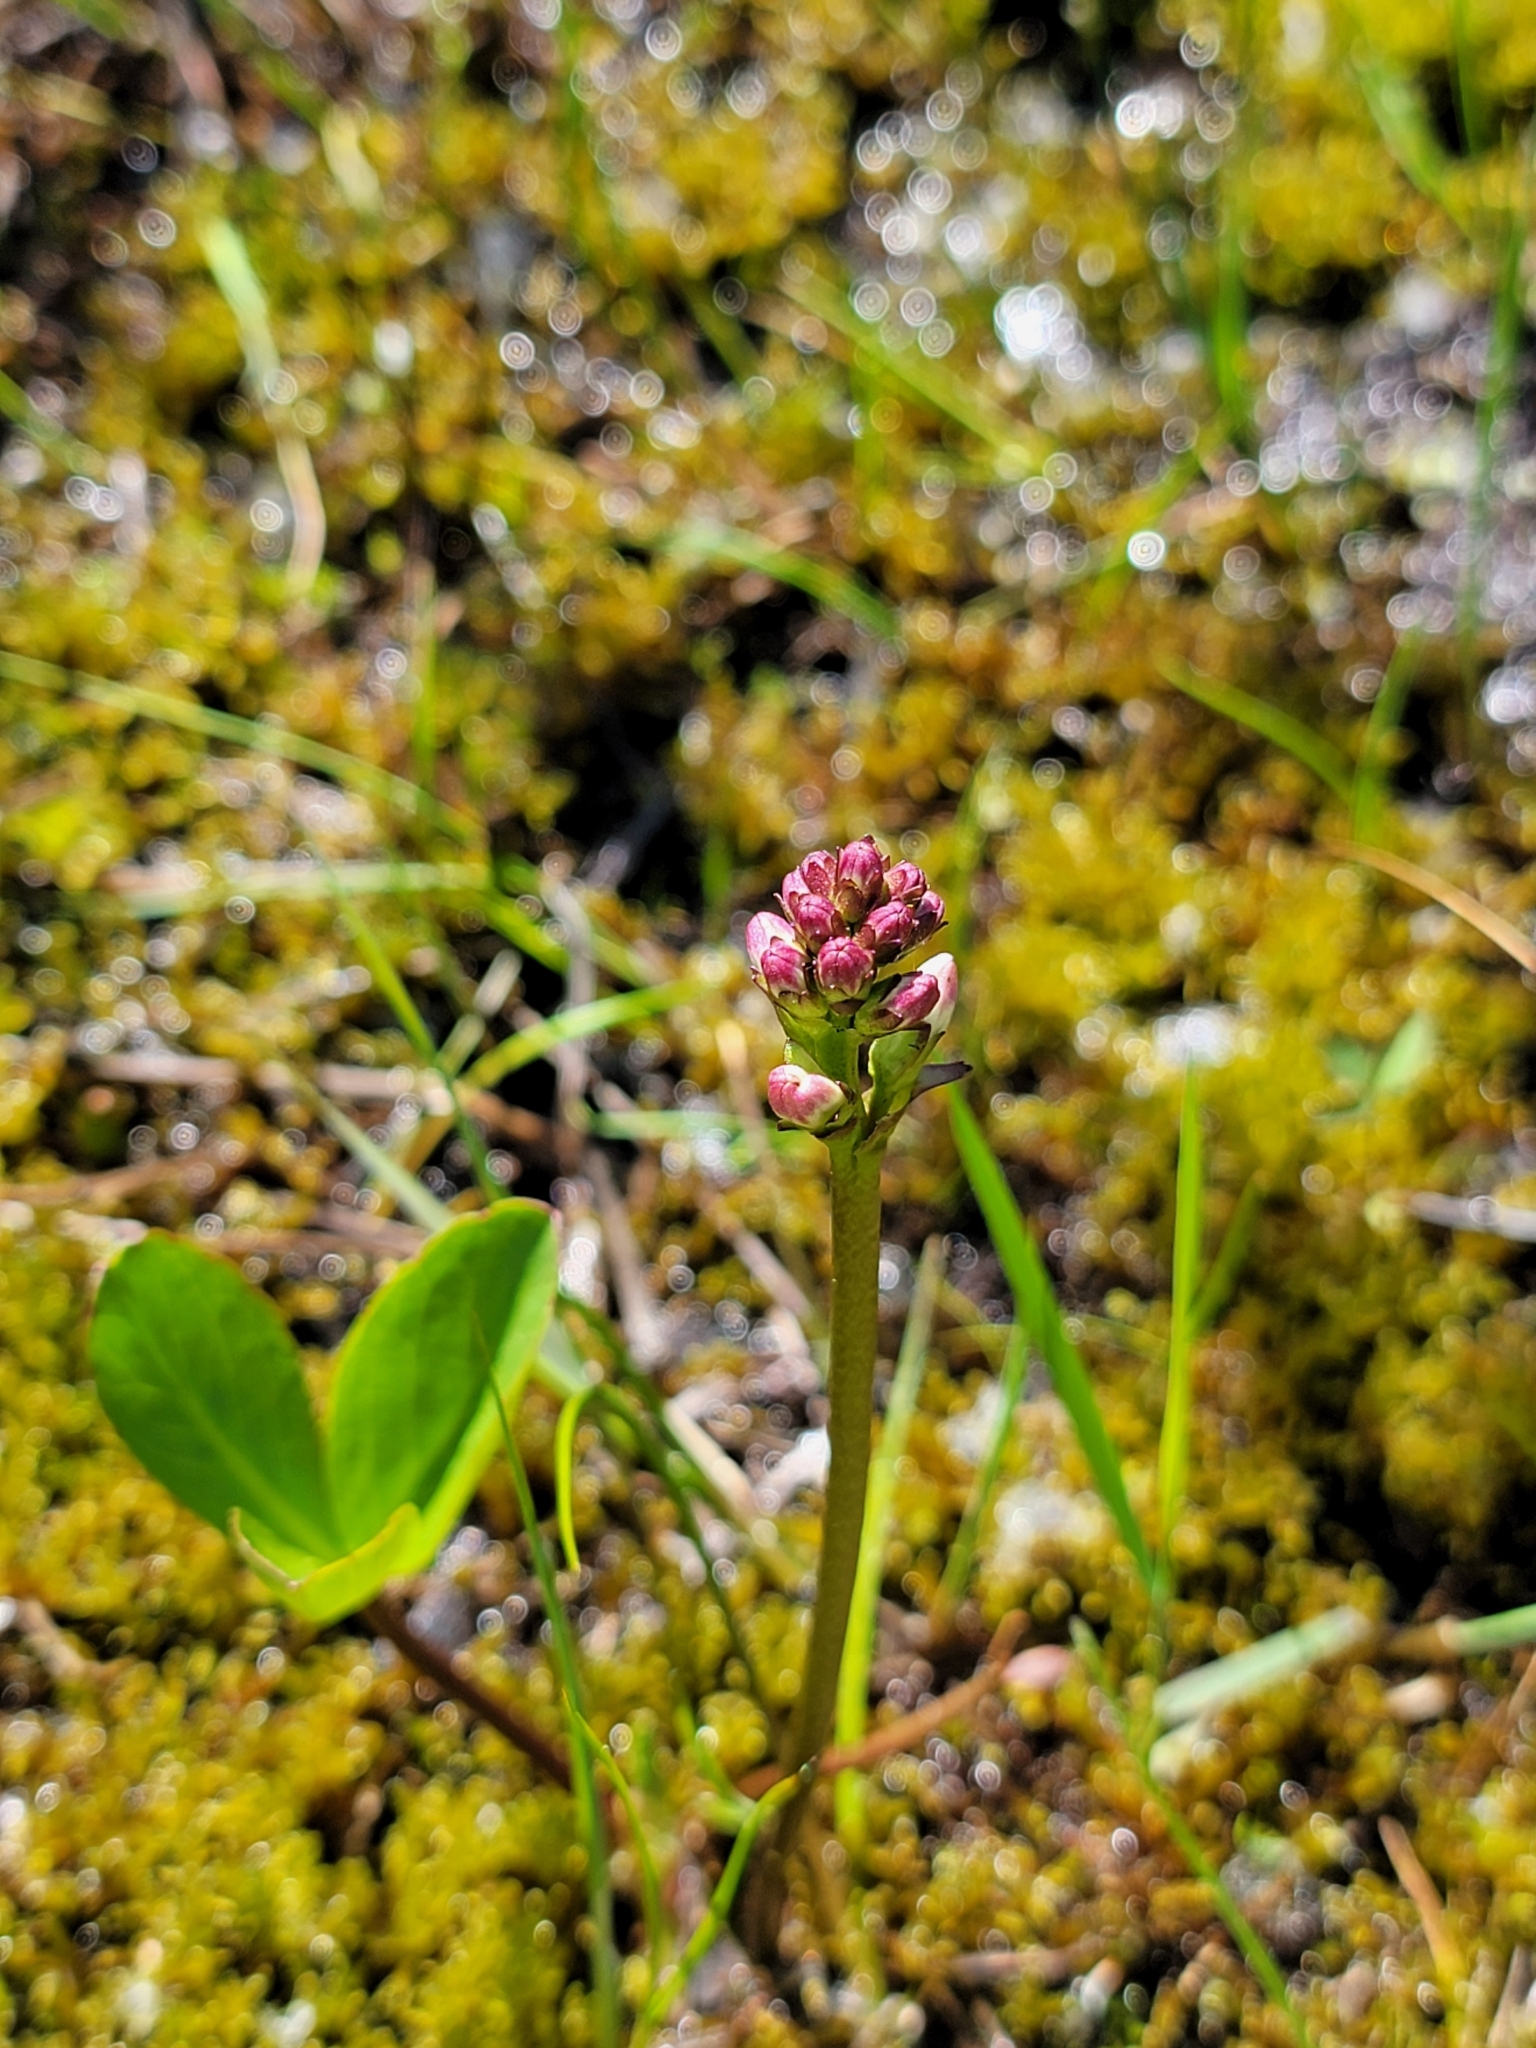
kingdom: Plantae
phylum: Tracheophyta
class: Magnoliopsida
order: Asterales
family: Menyanthaceae
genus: Menyanthes
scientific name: Menyanthes trifoliata
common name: Bogbean
